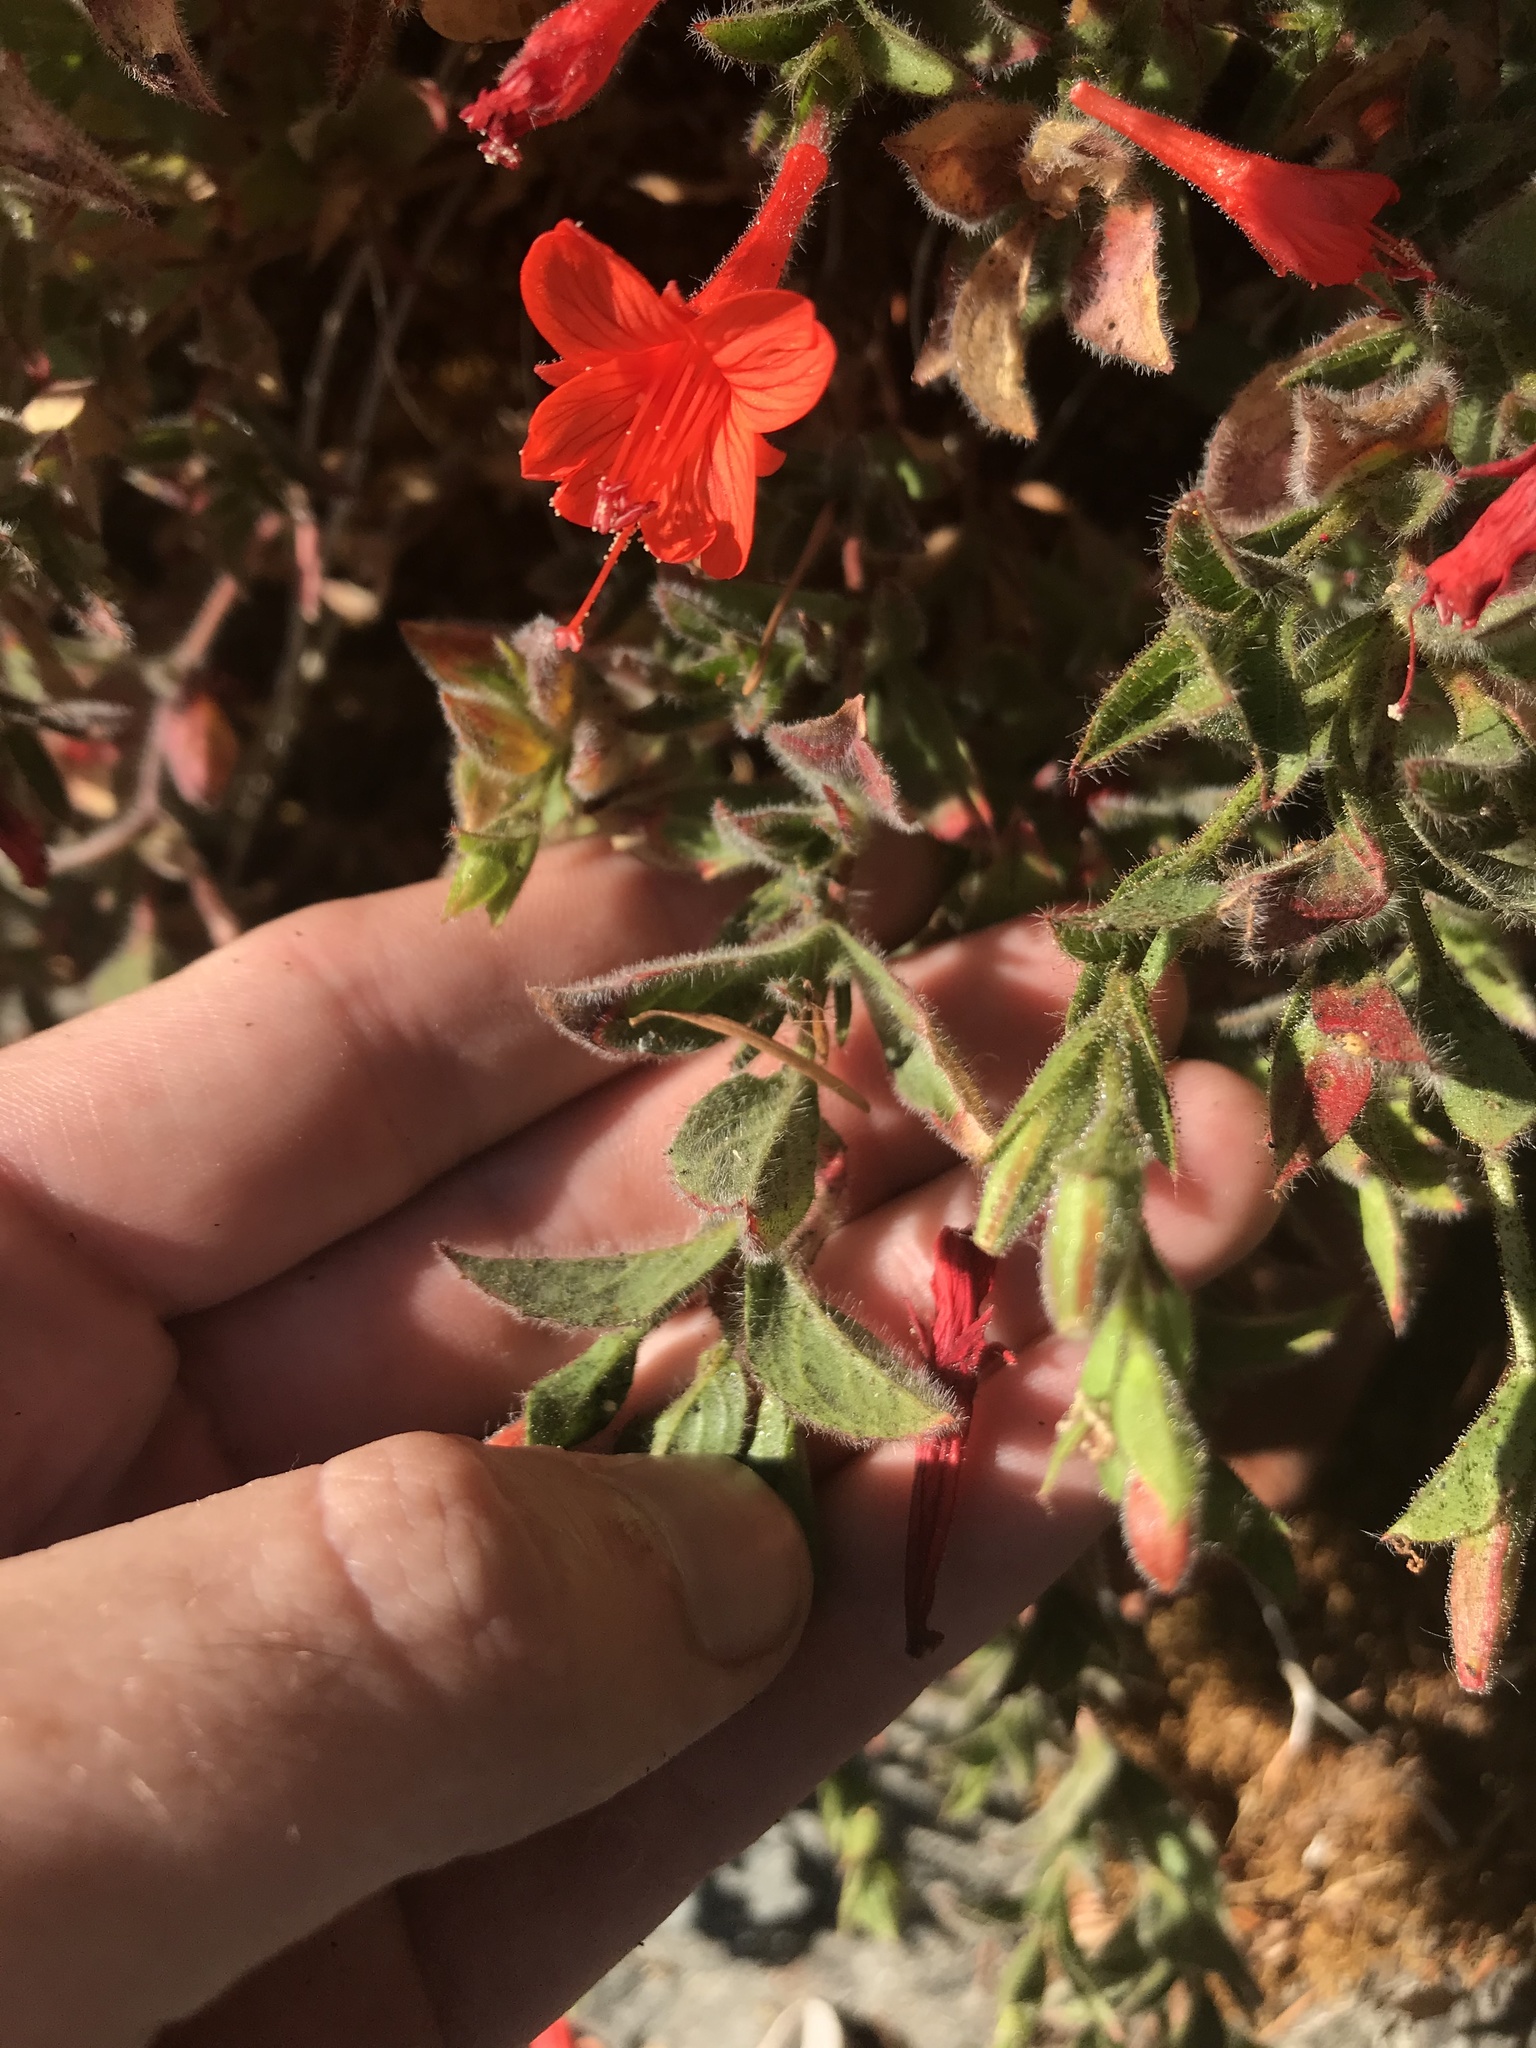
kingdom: Plantae
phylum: Tracheophyta
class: Magnoliopsida
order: Myrtales
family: Onagraceae
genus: Epilobium
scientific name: Epilobium canum
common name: California-fuchsia
